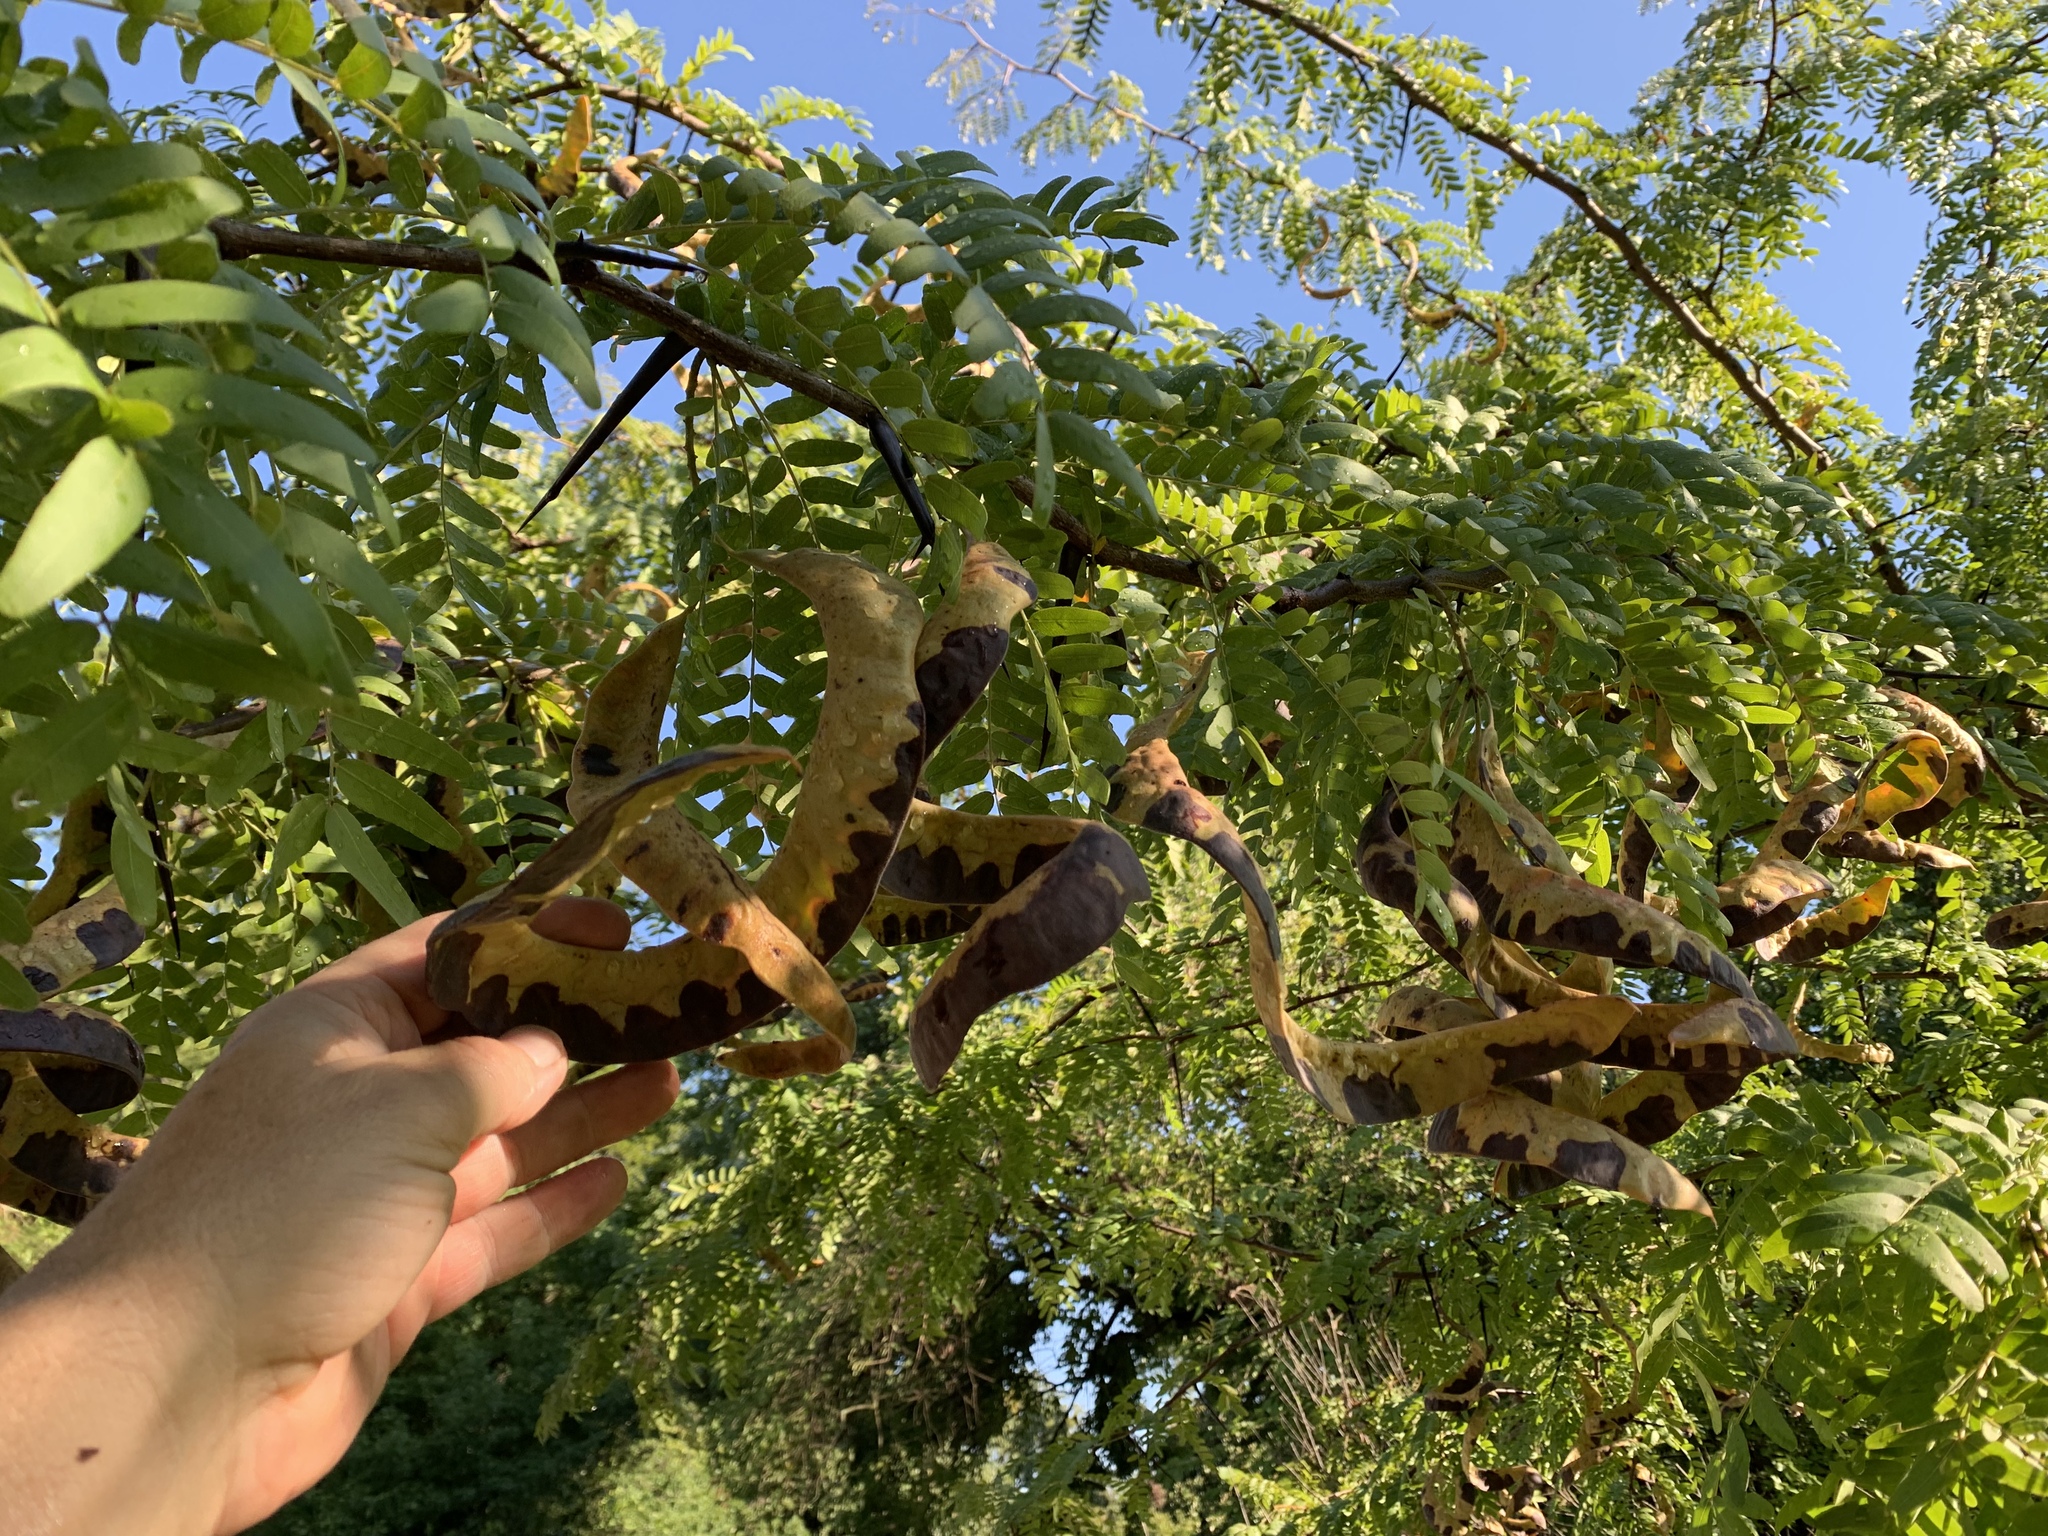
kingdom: Plantae
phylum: Tracheophyta
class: Magnoliopsida
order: Fabales
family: Fabaceae
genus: Gleditsia
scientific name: Gleditsia triacanthos
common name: Common honeylocust
